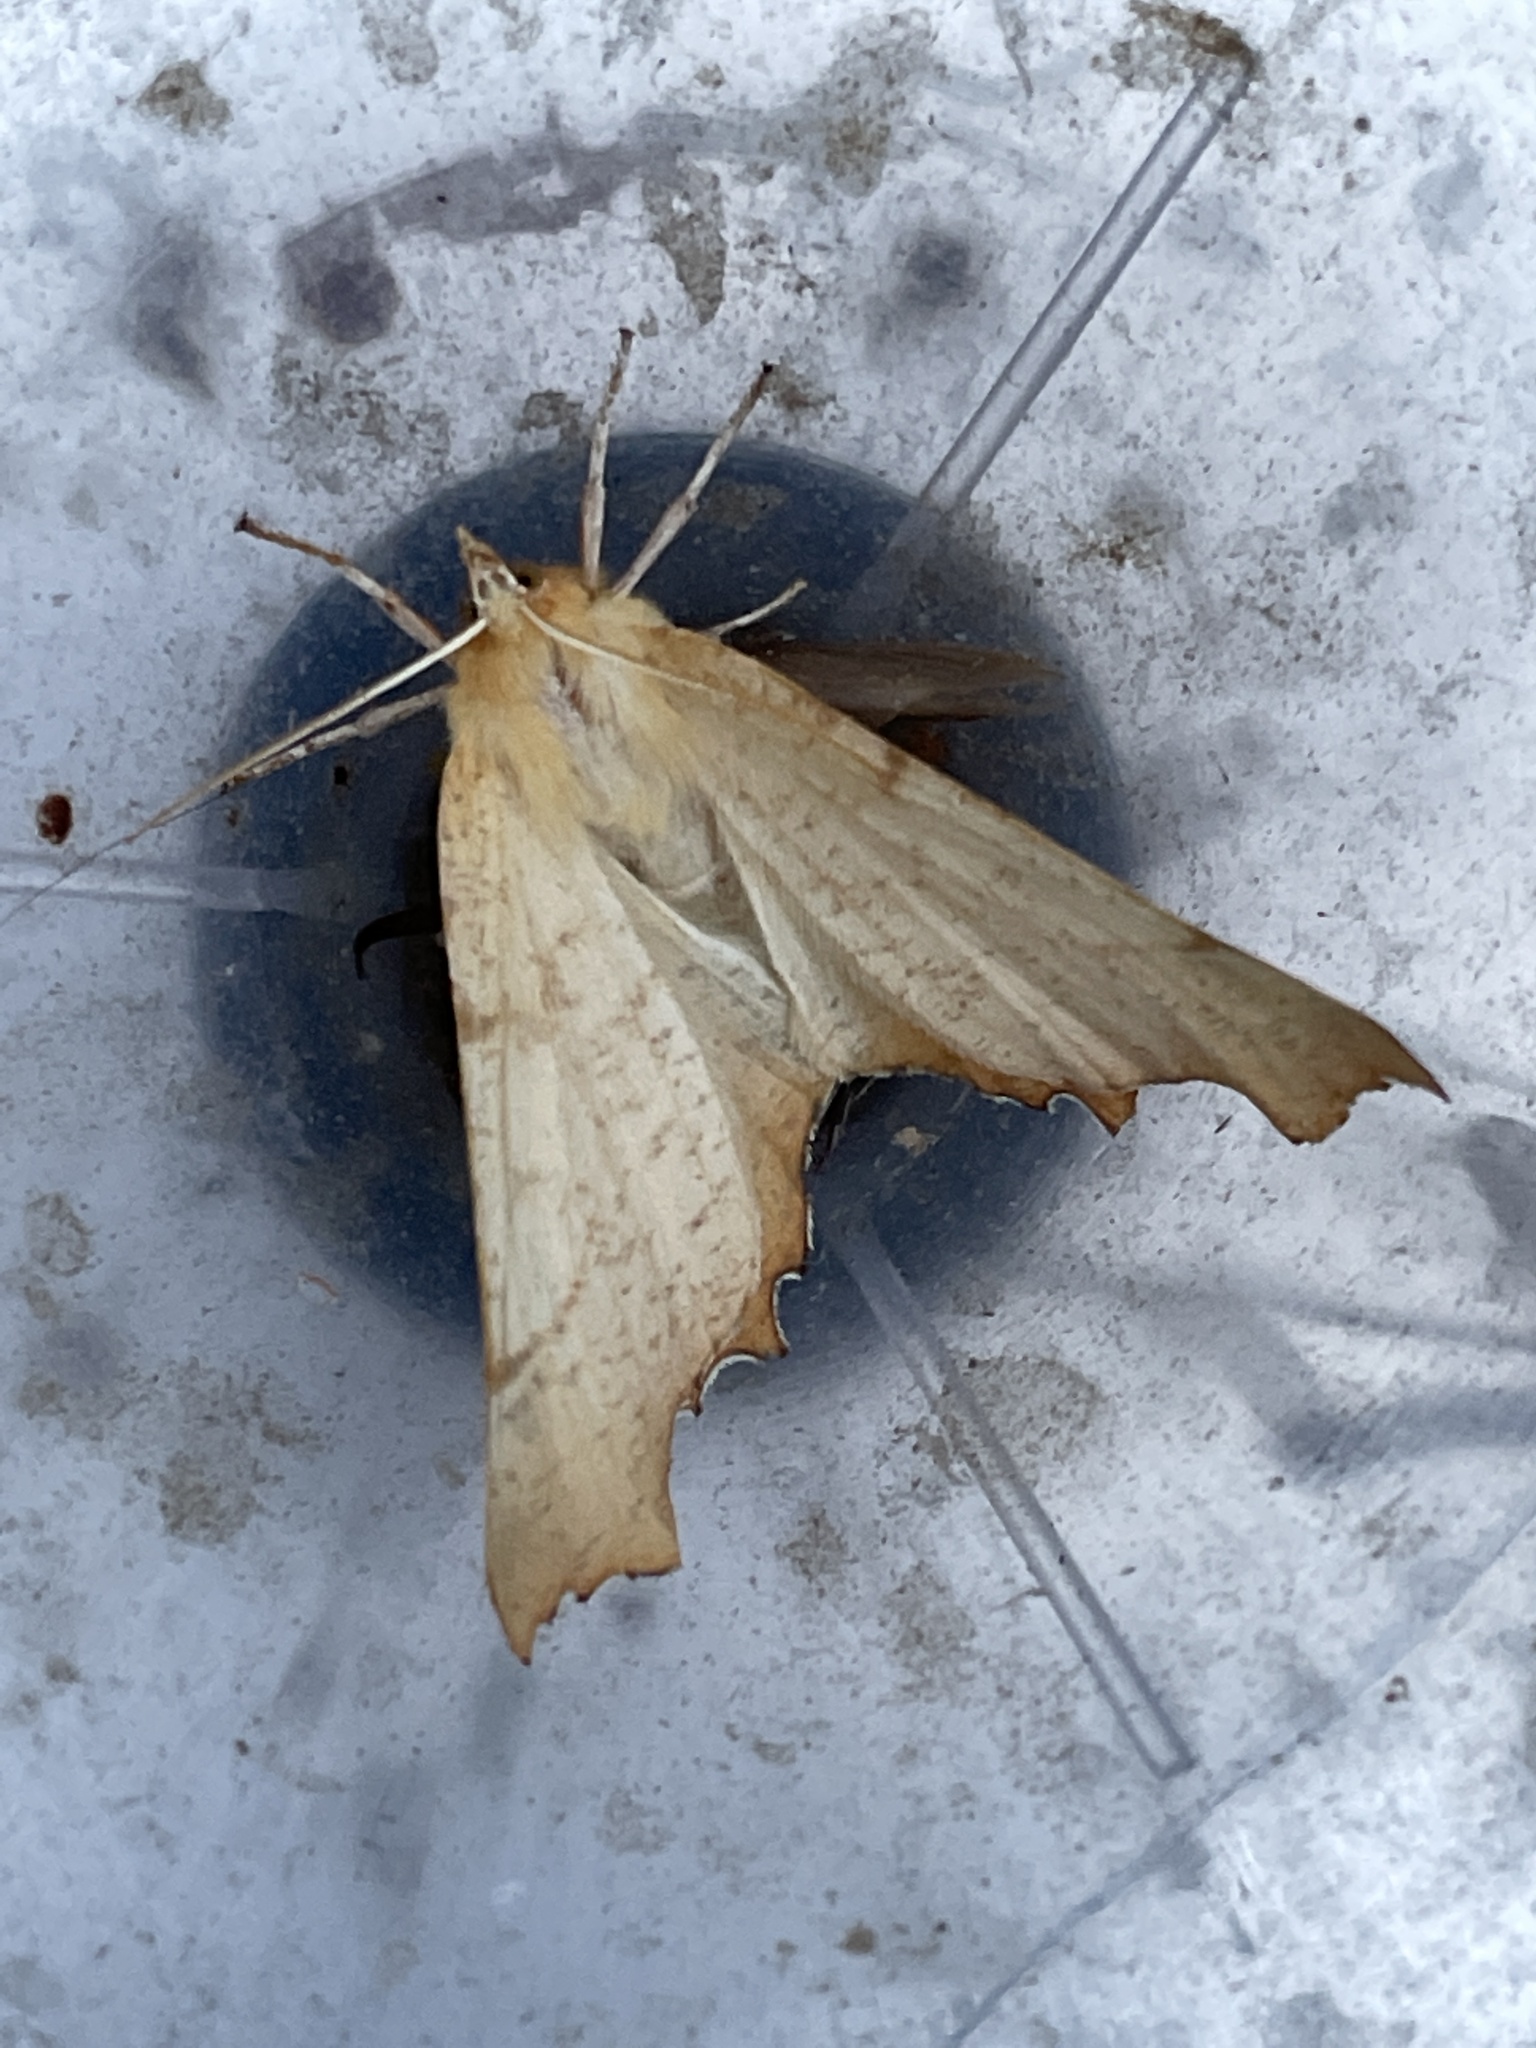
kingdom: Animalia
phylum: Arthropoda
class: Insecta
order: Lepidoptera
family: Geometridae
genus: Ennomos
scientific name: Ennomos autumnaria
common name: Large thorn
